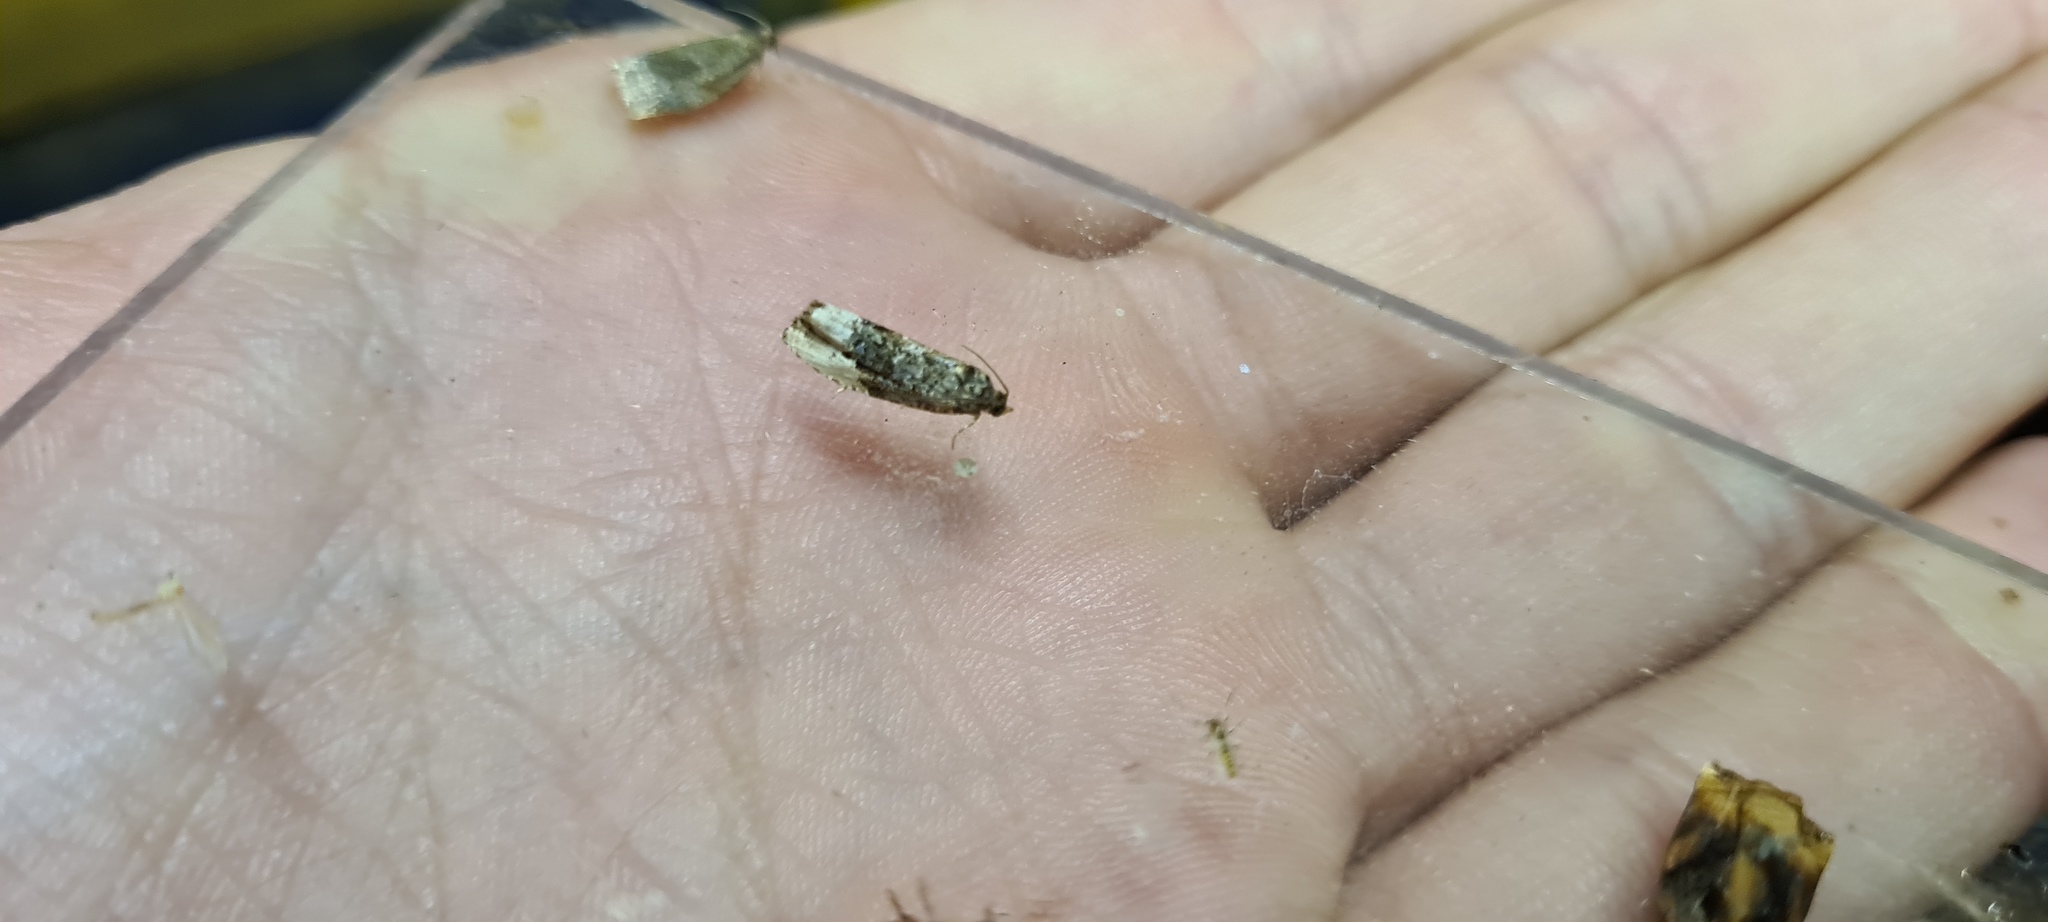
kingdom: Animalia
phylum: Arthropoda
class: Insecta
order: Lepidoptera
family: Tortricidae
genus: Hedya
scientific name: Hedya nubiferana
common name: Marbled orchard tortrix
